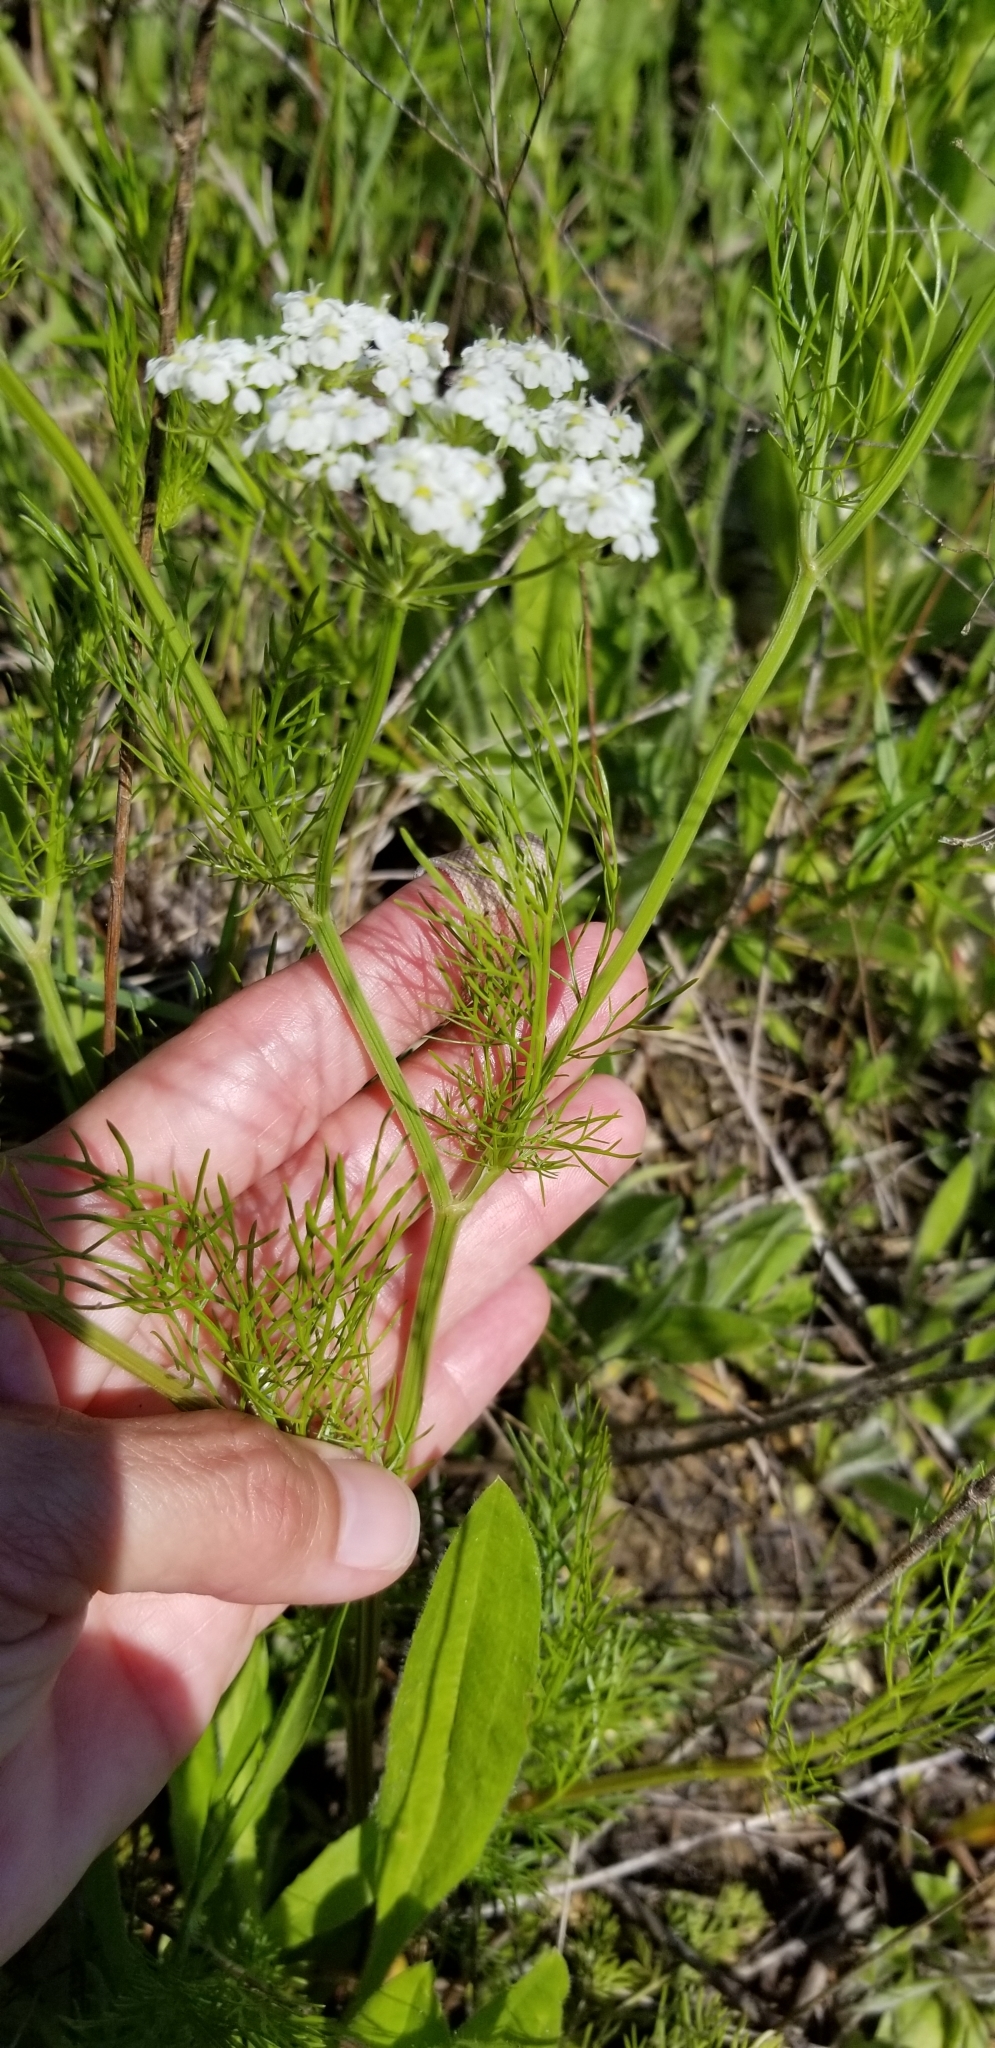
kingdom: Plantae
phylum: Tracheophyta
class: Magnoliopsida
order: Apiales
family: Apiaceae
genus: Atrema
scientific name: Atrema americanum
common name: Prairie-bishop
